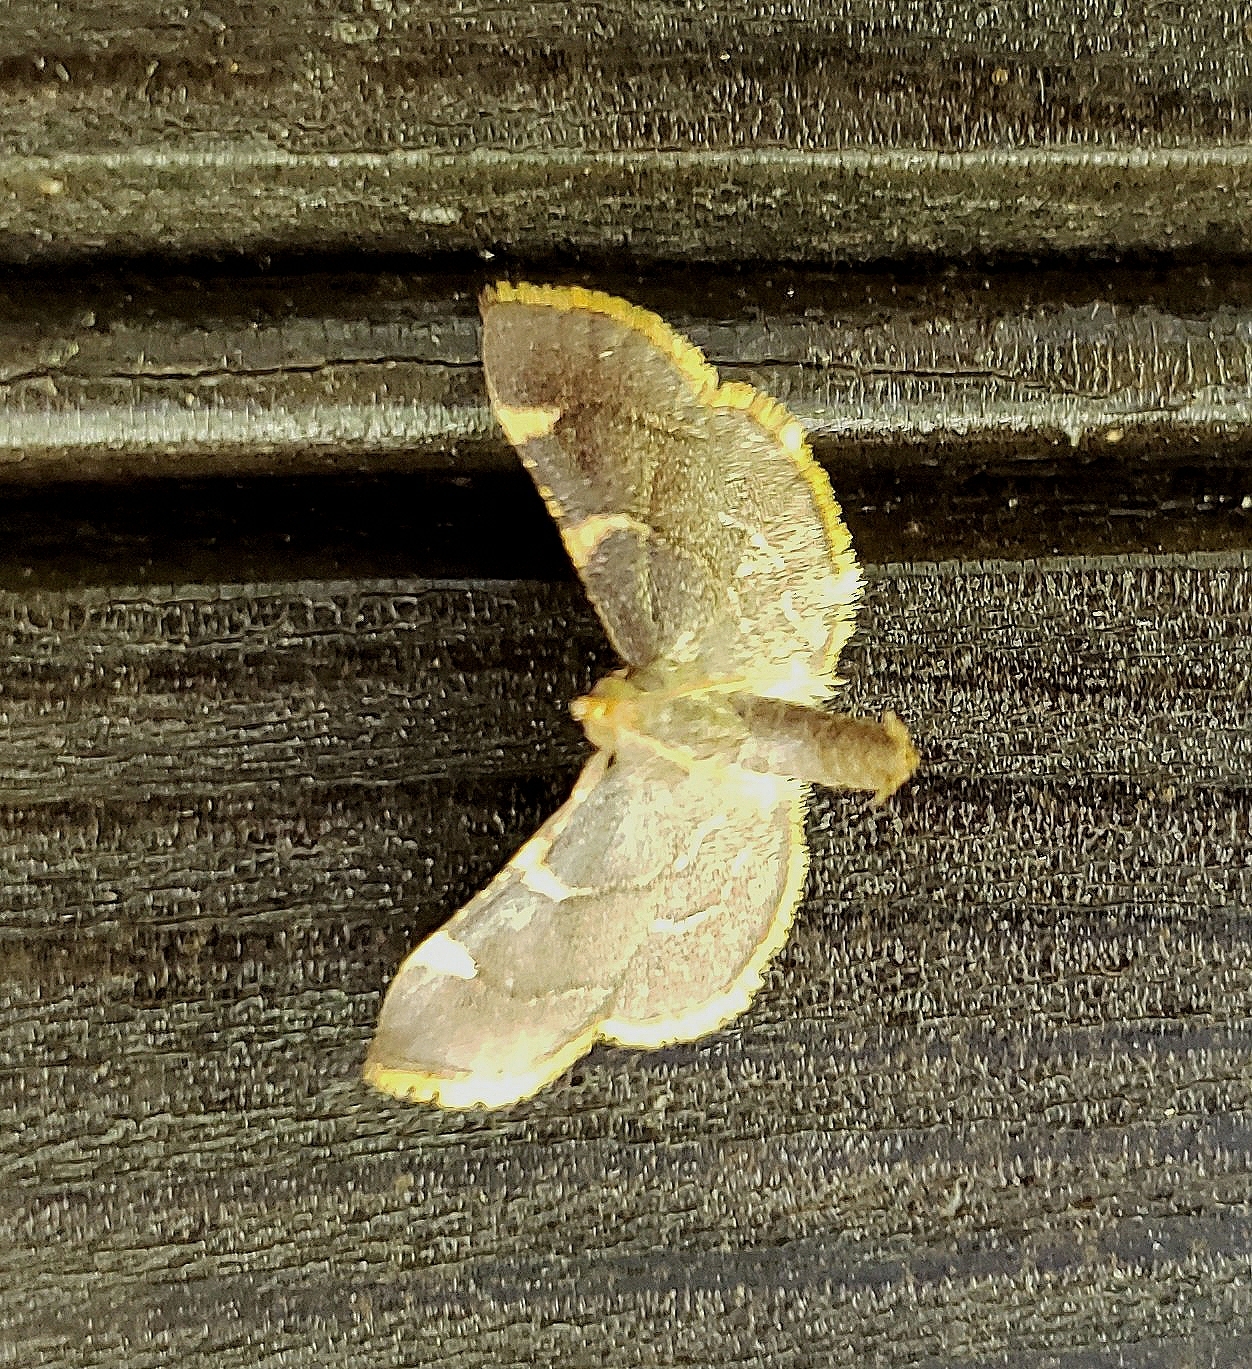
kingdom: Animalia
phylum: Arthropoda
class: Insecta
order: Lepidoptera
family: Pyralidae
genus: Hypsopygia
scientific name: Hypsopygia olinalis
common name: Yellow-fringed dolichomia moth
